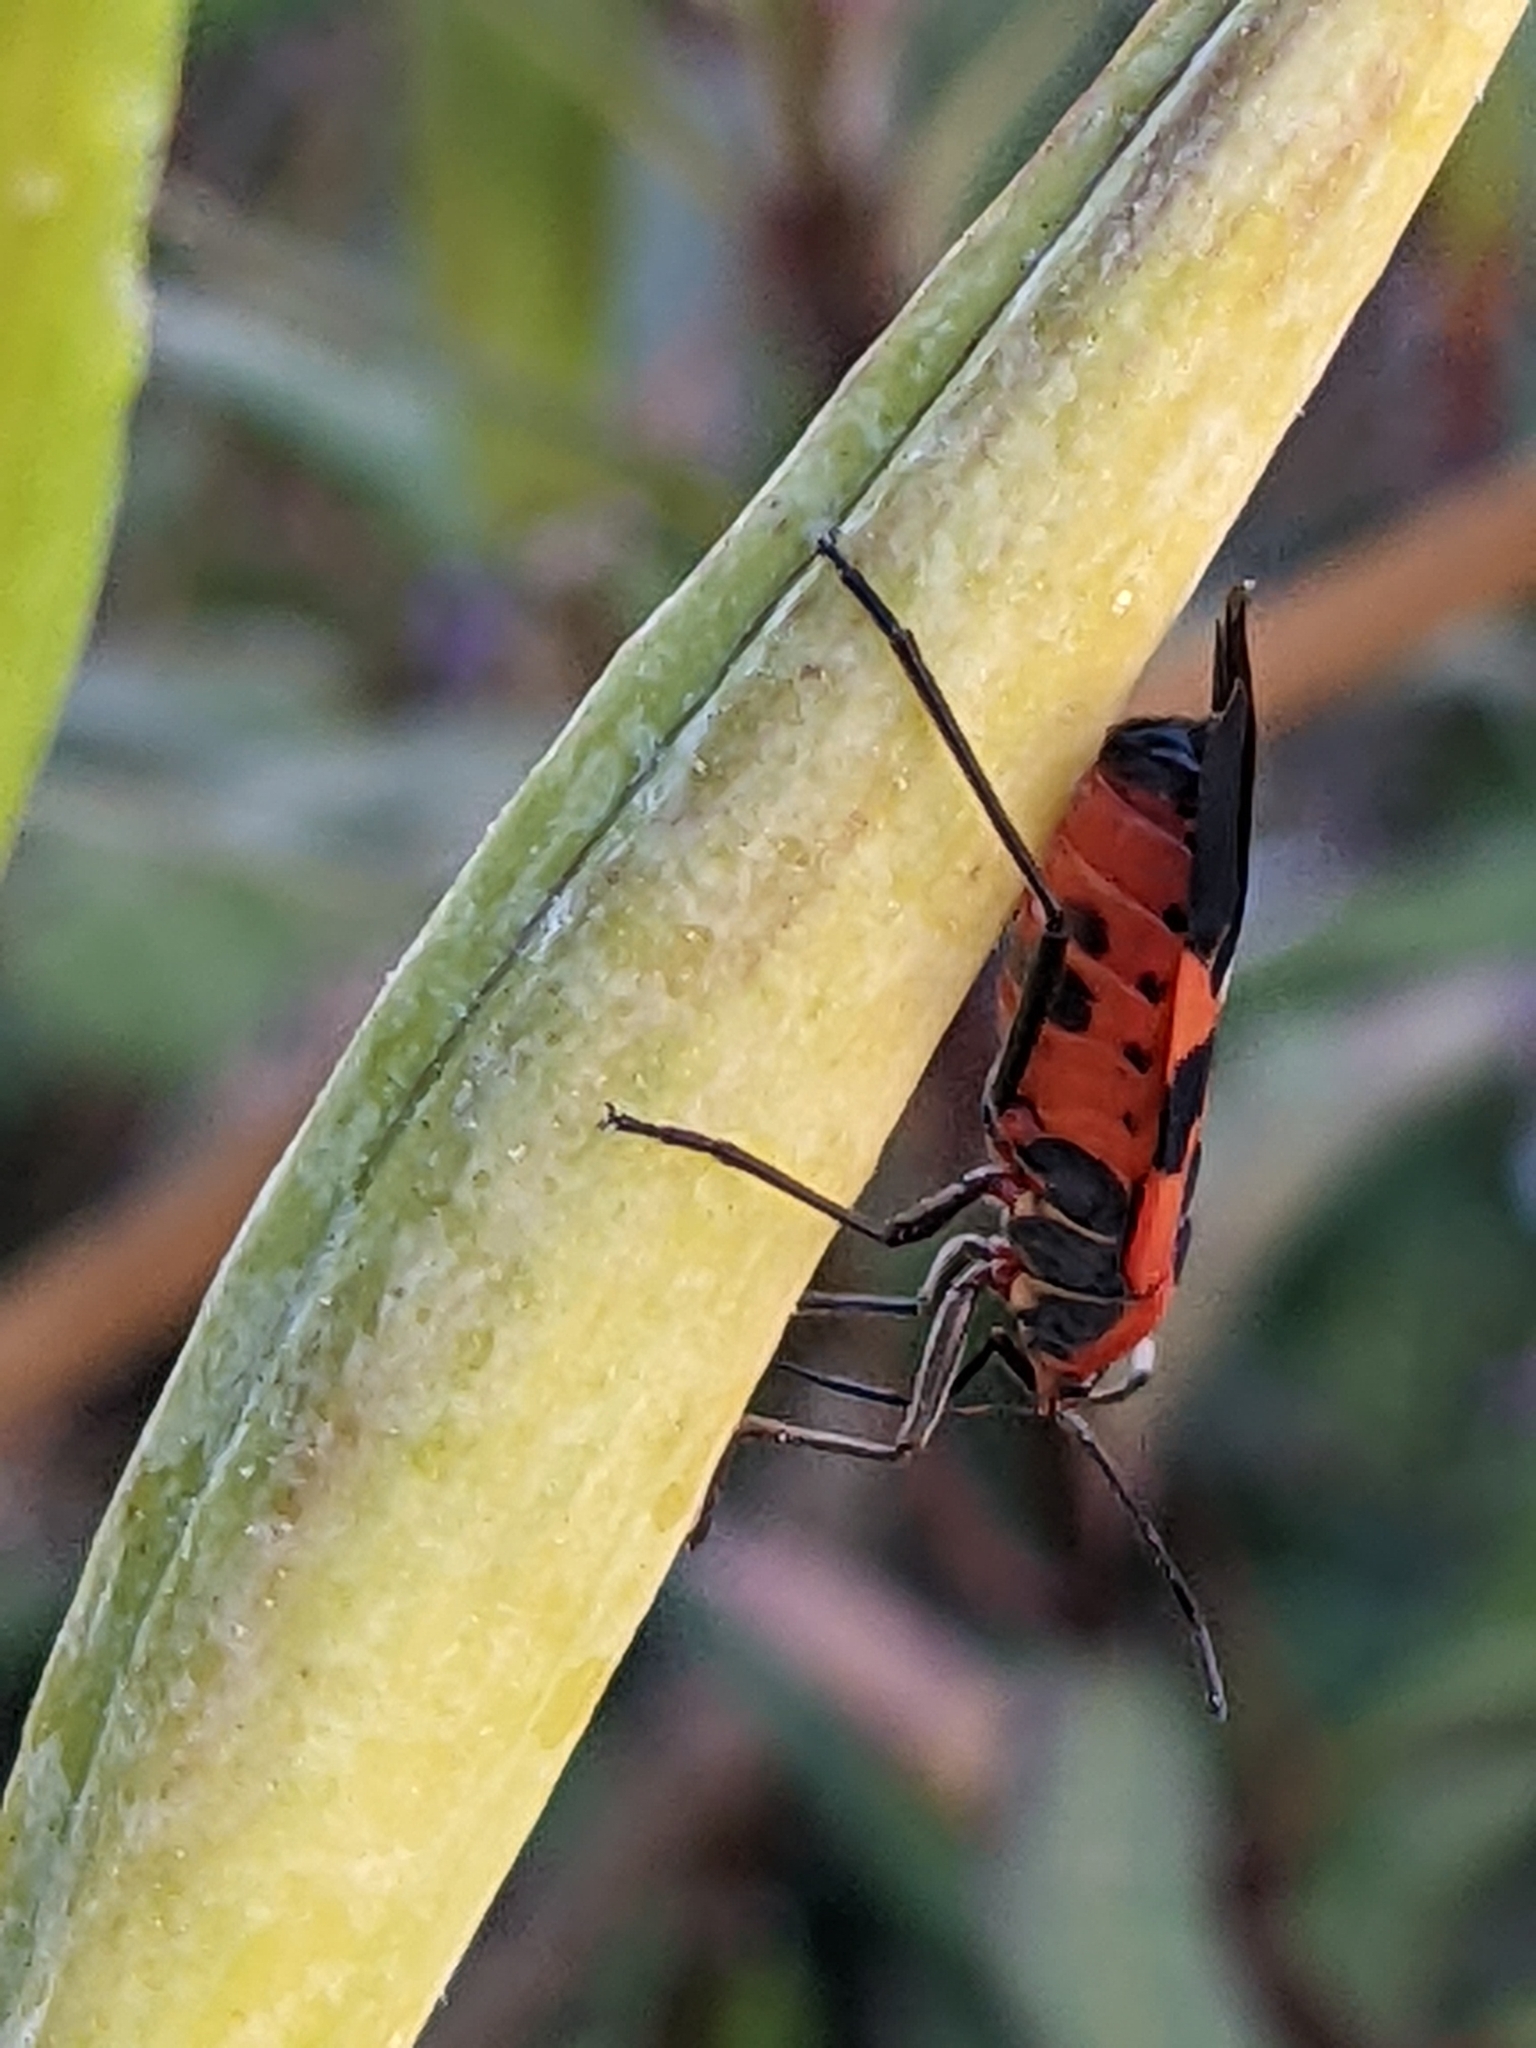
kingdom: Animalia
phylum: Arthropoda
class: Insecta
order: Hemiptera
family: Lygaeidae
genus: Oncopeltus
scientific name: Oncopeltus fasciatus
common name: Large milkweed bug
